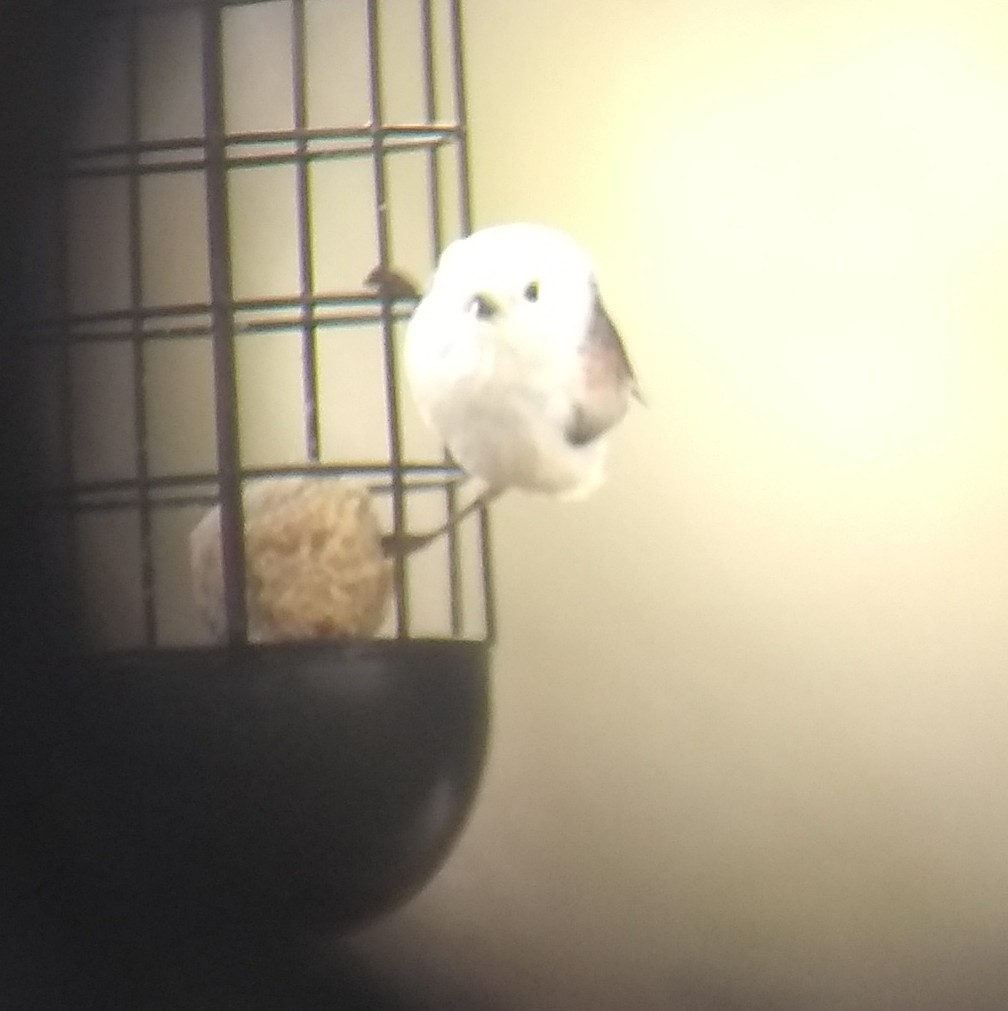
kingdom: Animalia
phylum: Chordata
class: Aves
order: Passeriformes
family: Aegithalidae
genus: Aegithalos
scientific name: Aegithalos caudatus
